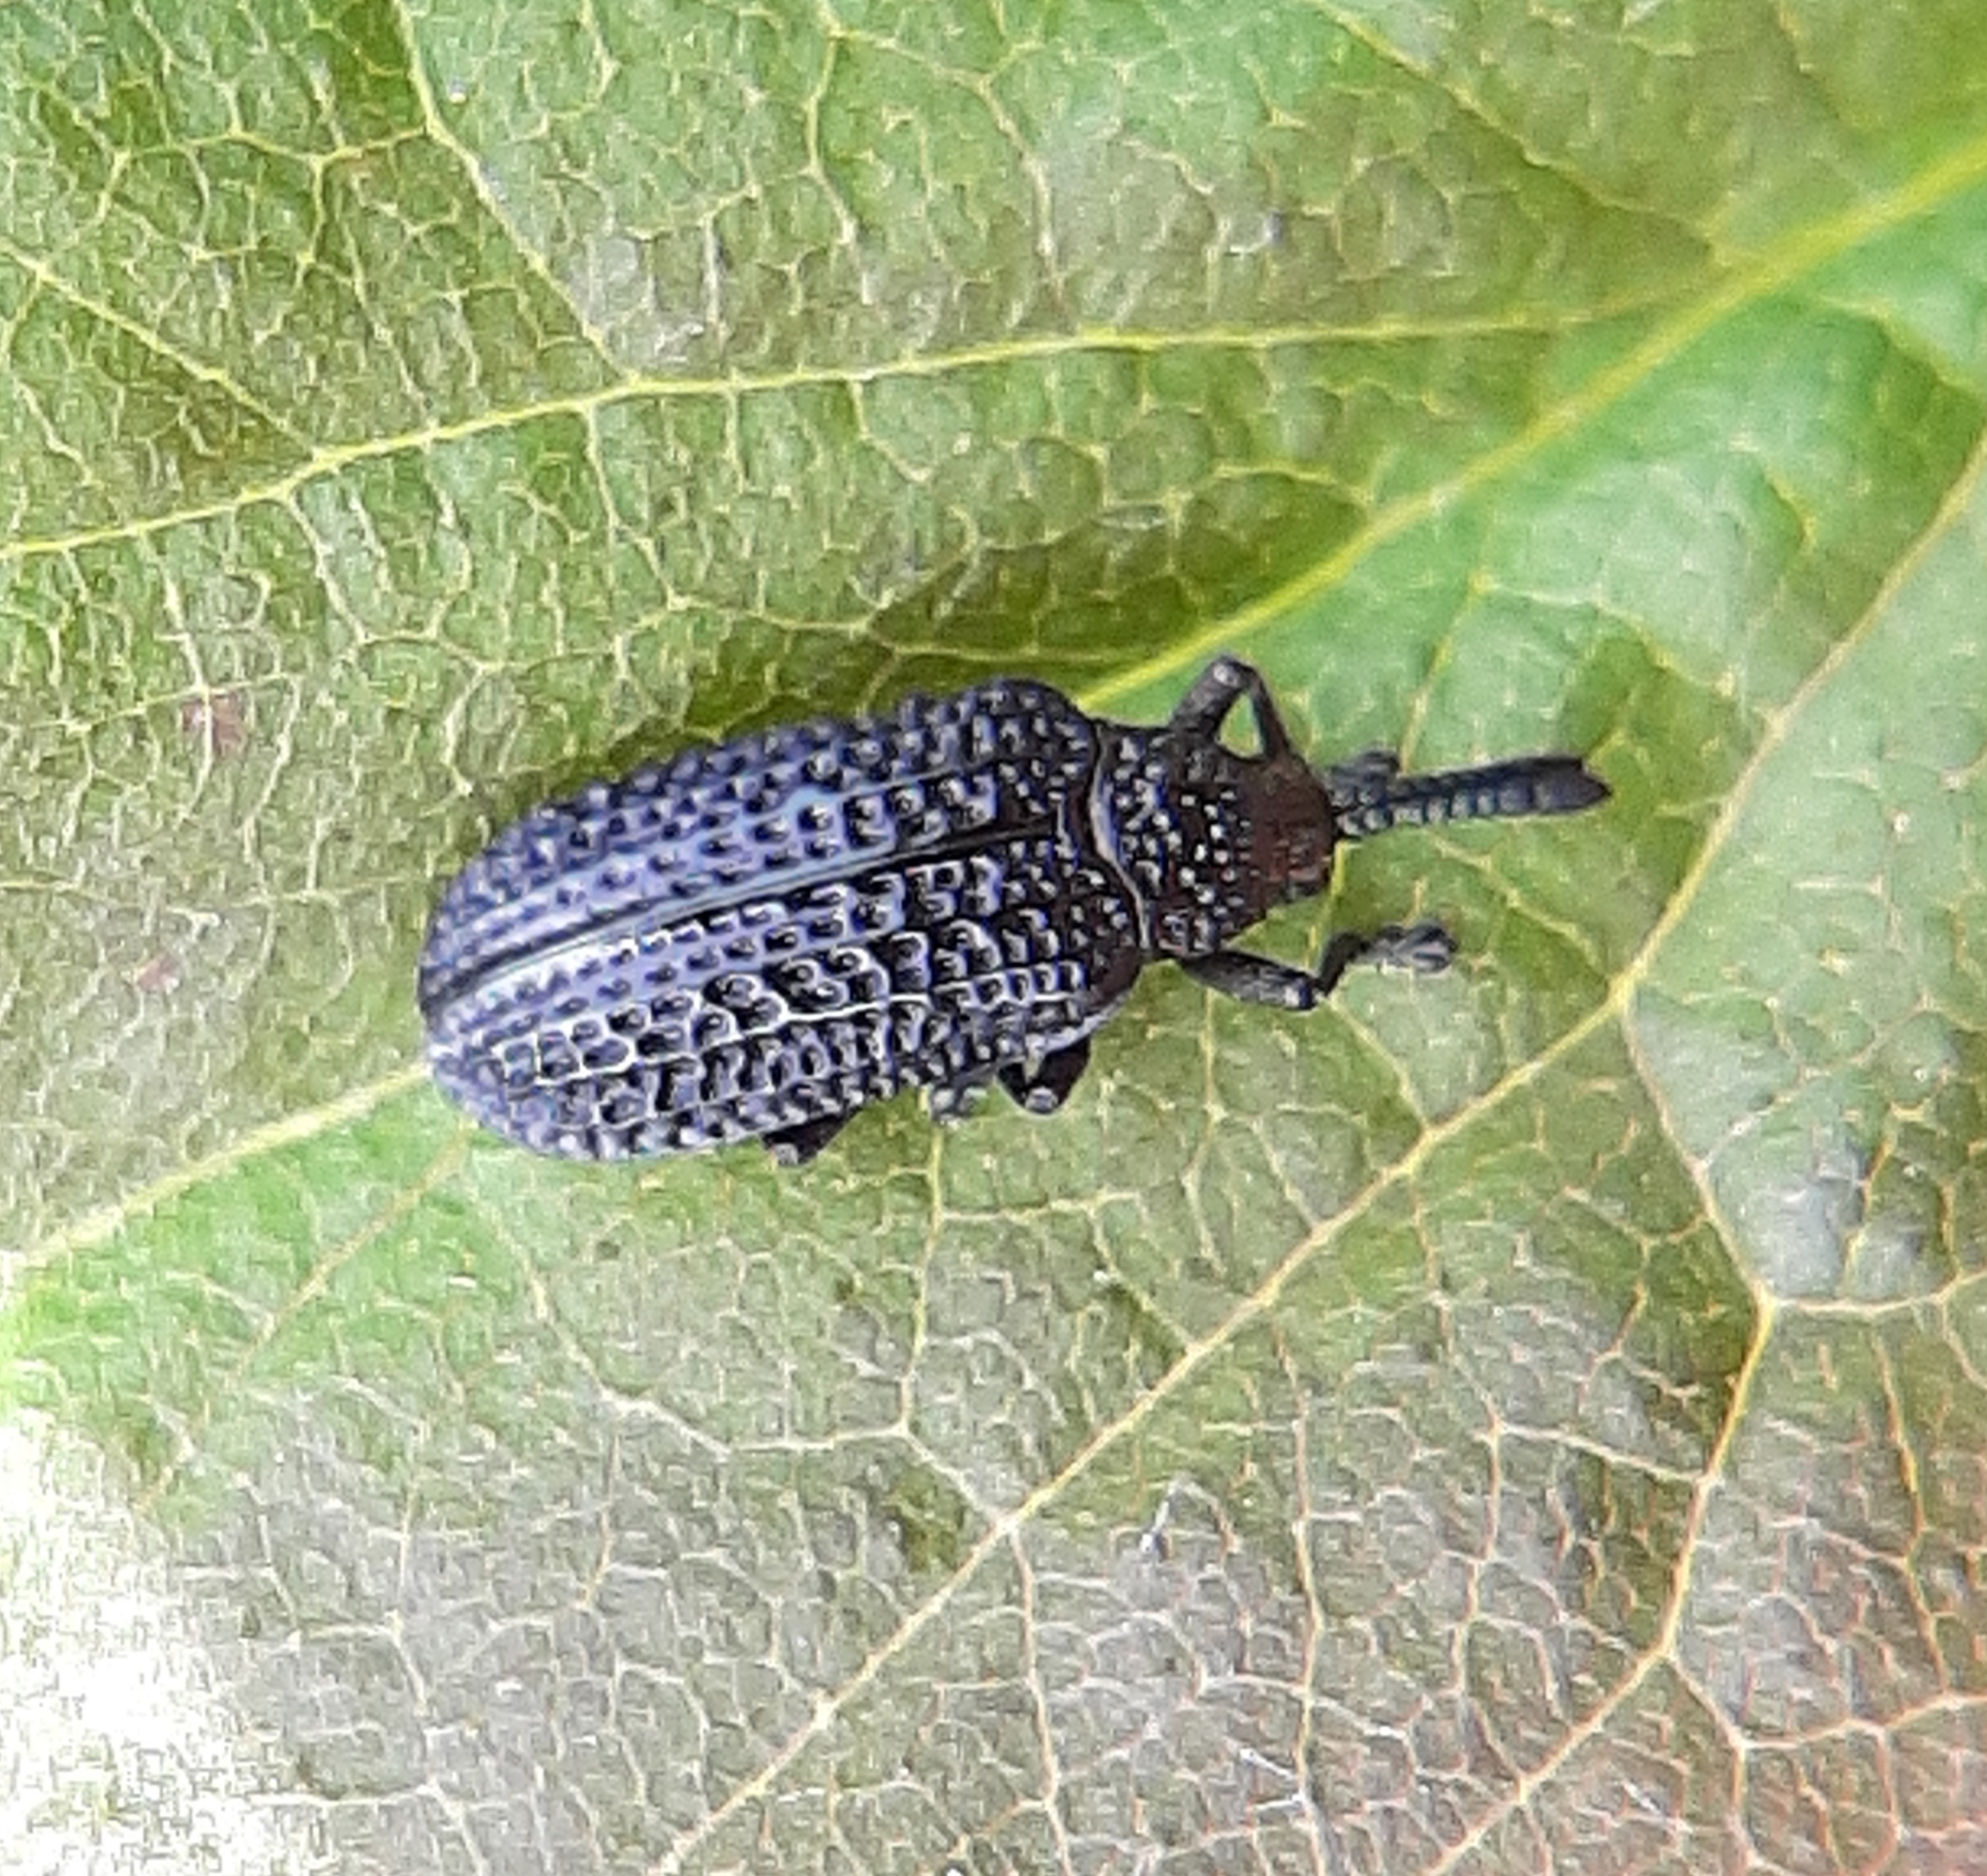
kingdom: Animalia
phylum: Arthropoda
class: Insecta
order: Coleoptera
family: Chrysomelidae
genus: Microrhopala
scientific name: Microrhopala excavata
